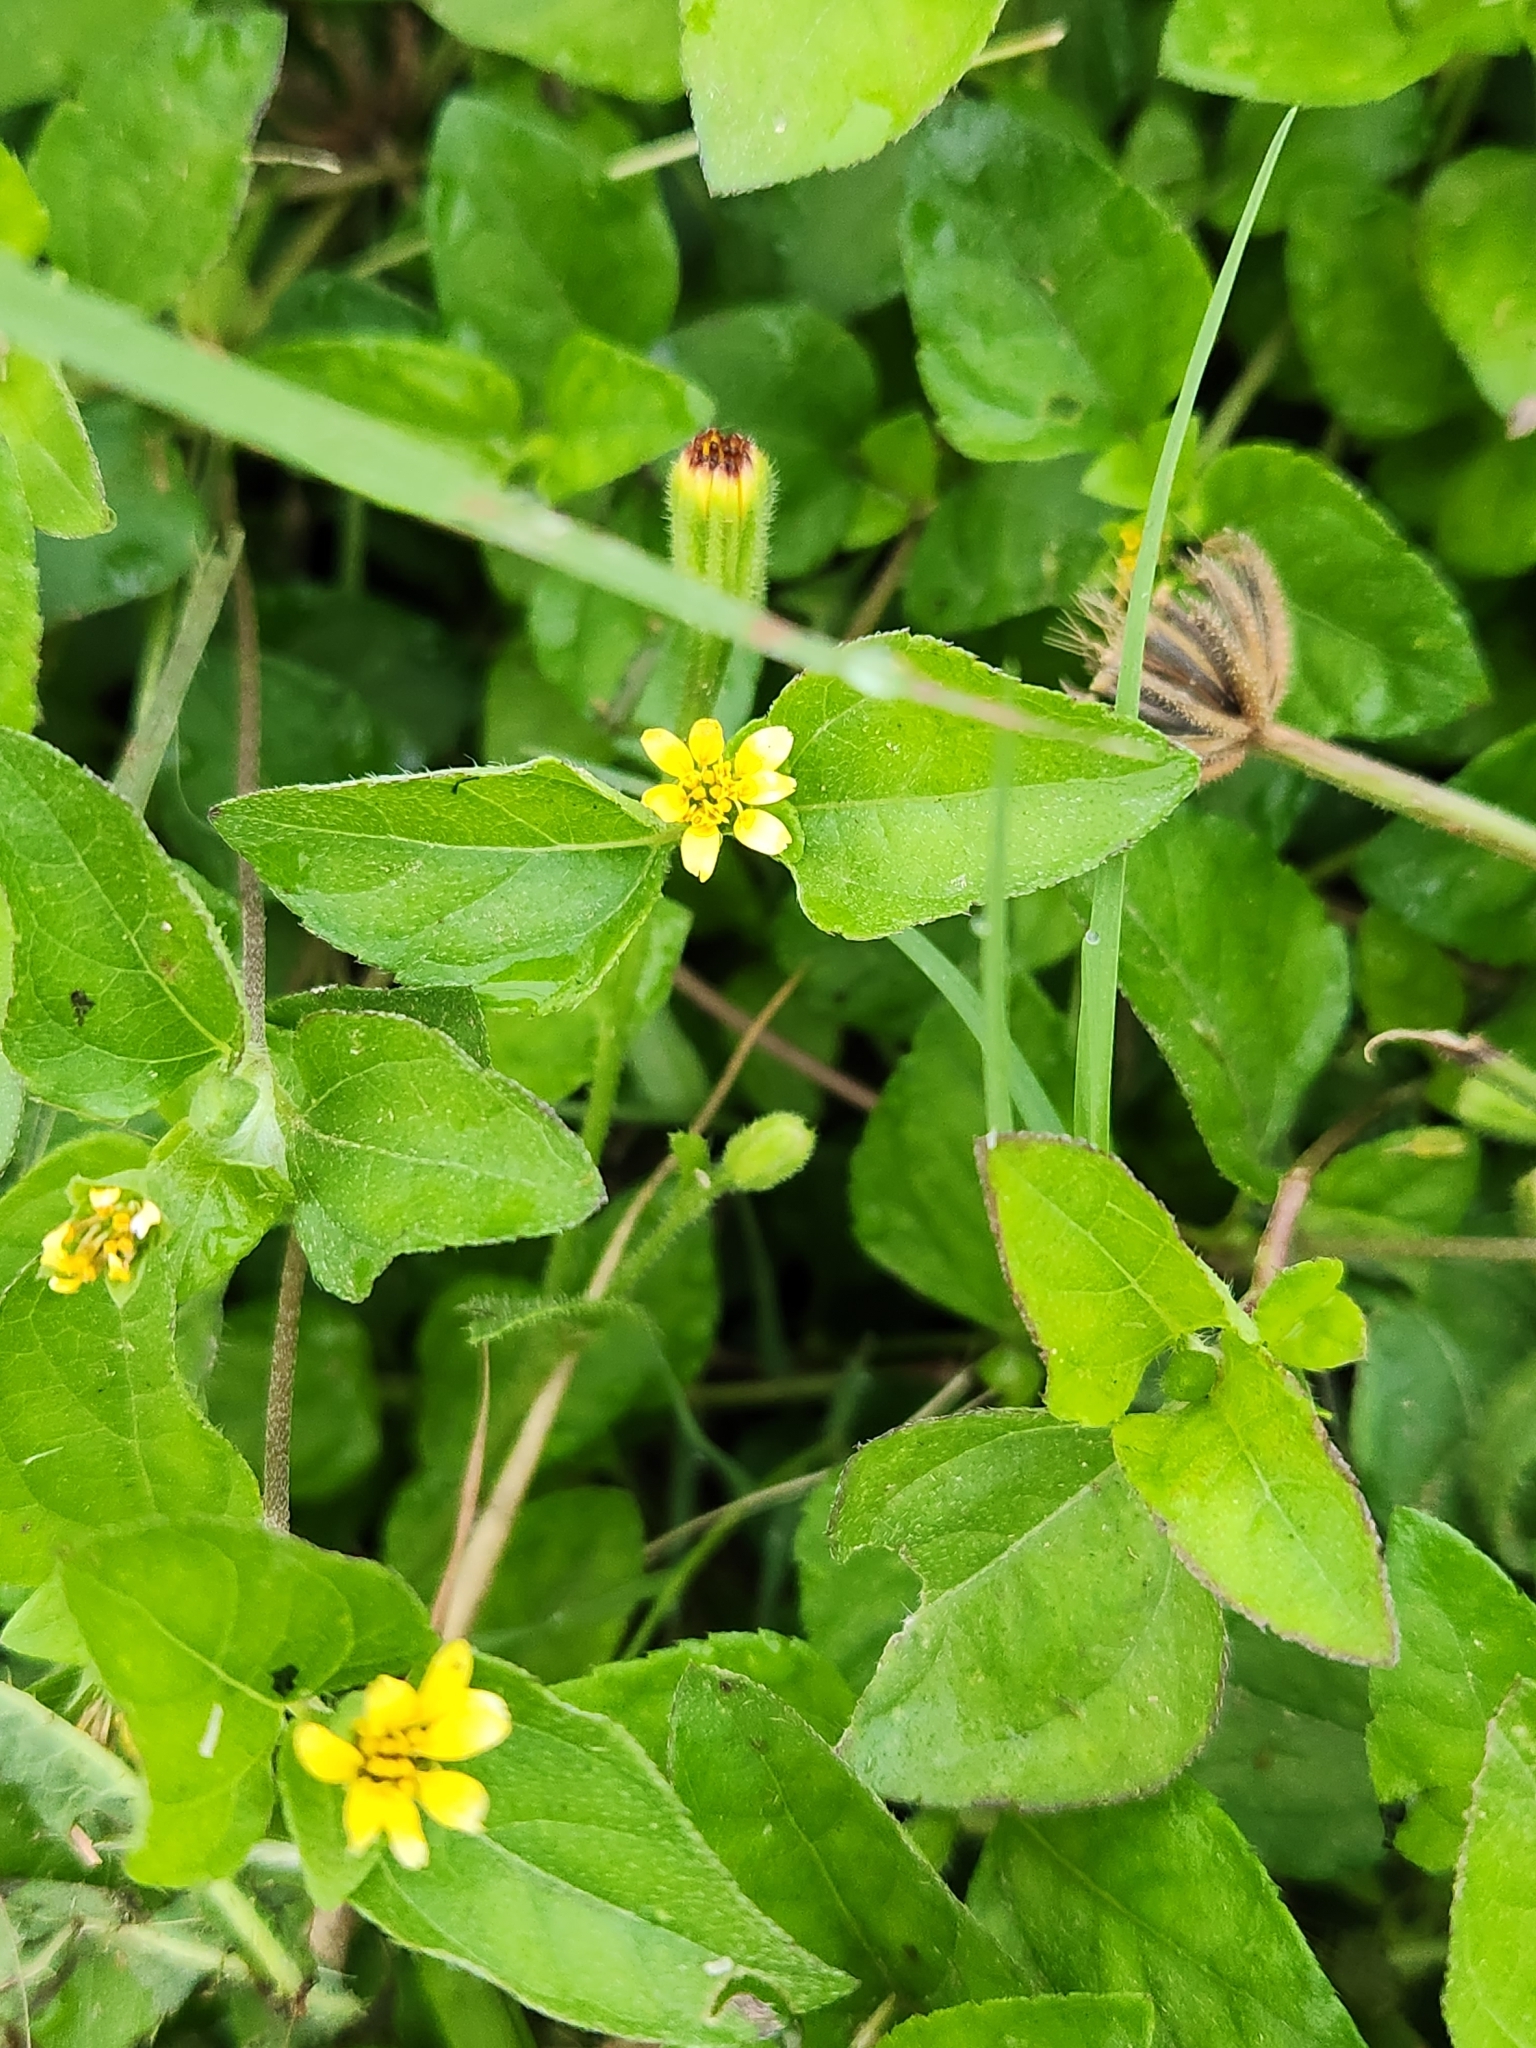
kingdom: Plantae
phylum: Tracheophyta
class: Magnoliopsida
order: Asterales
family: Asteraceae
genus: Calyptocarpus
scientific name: Calyptocarpus vialis
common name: Straggler daisy
